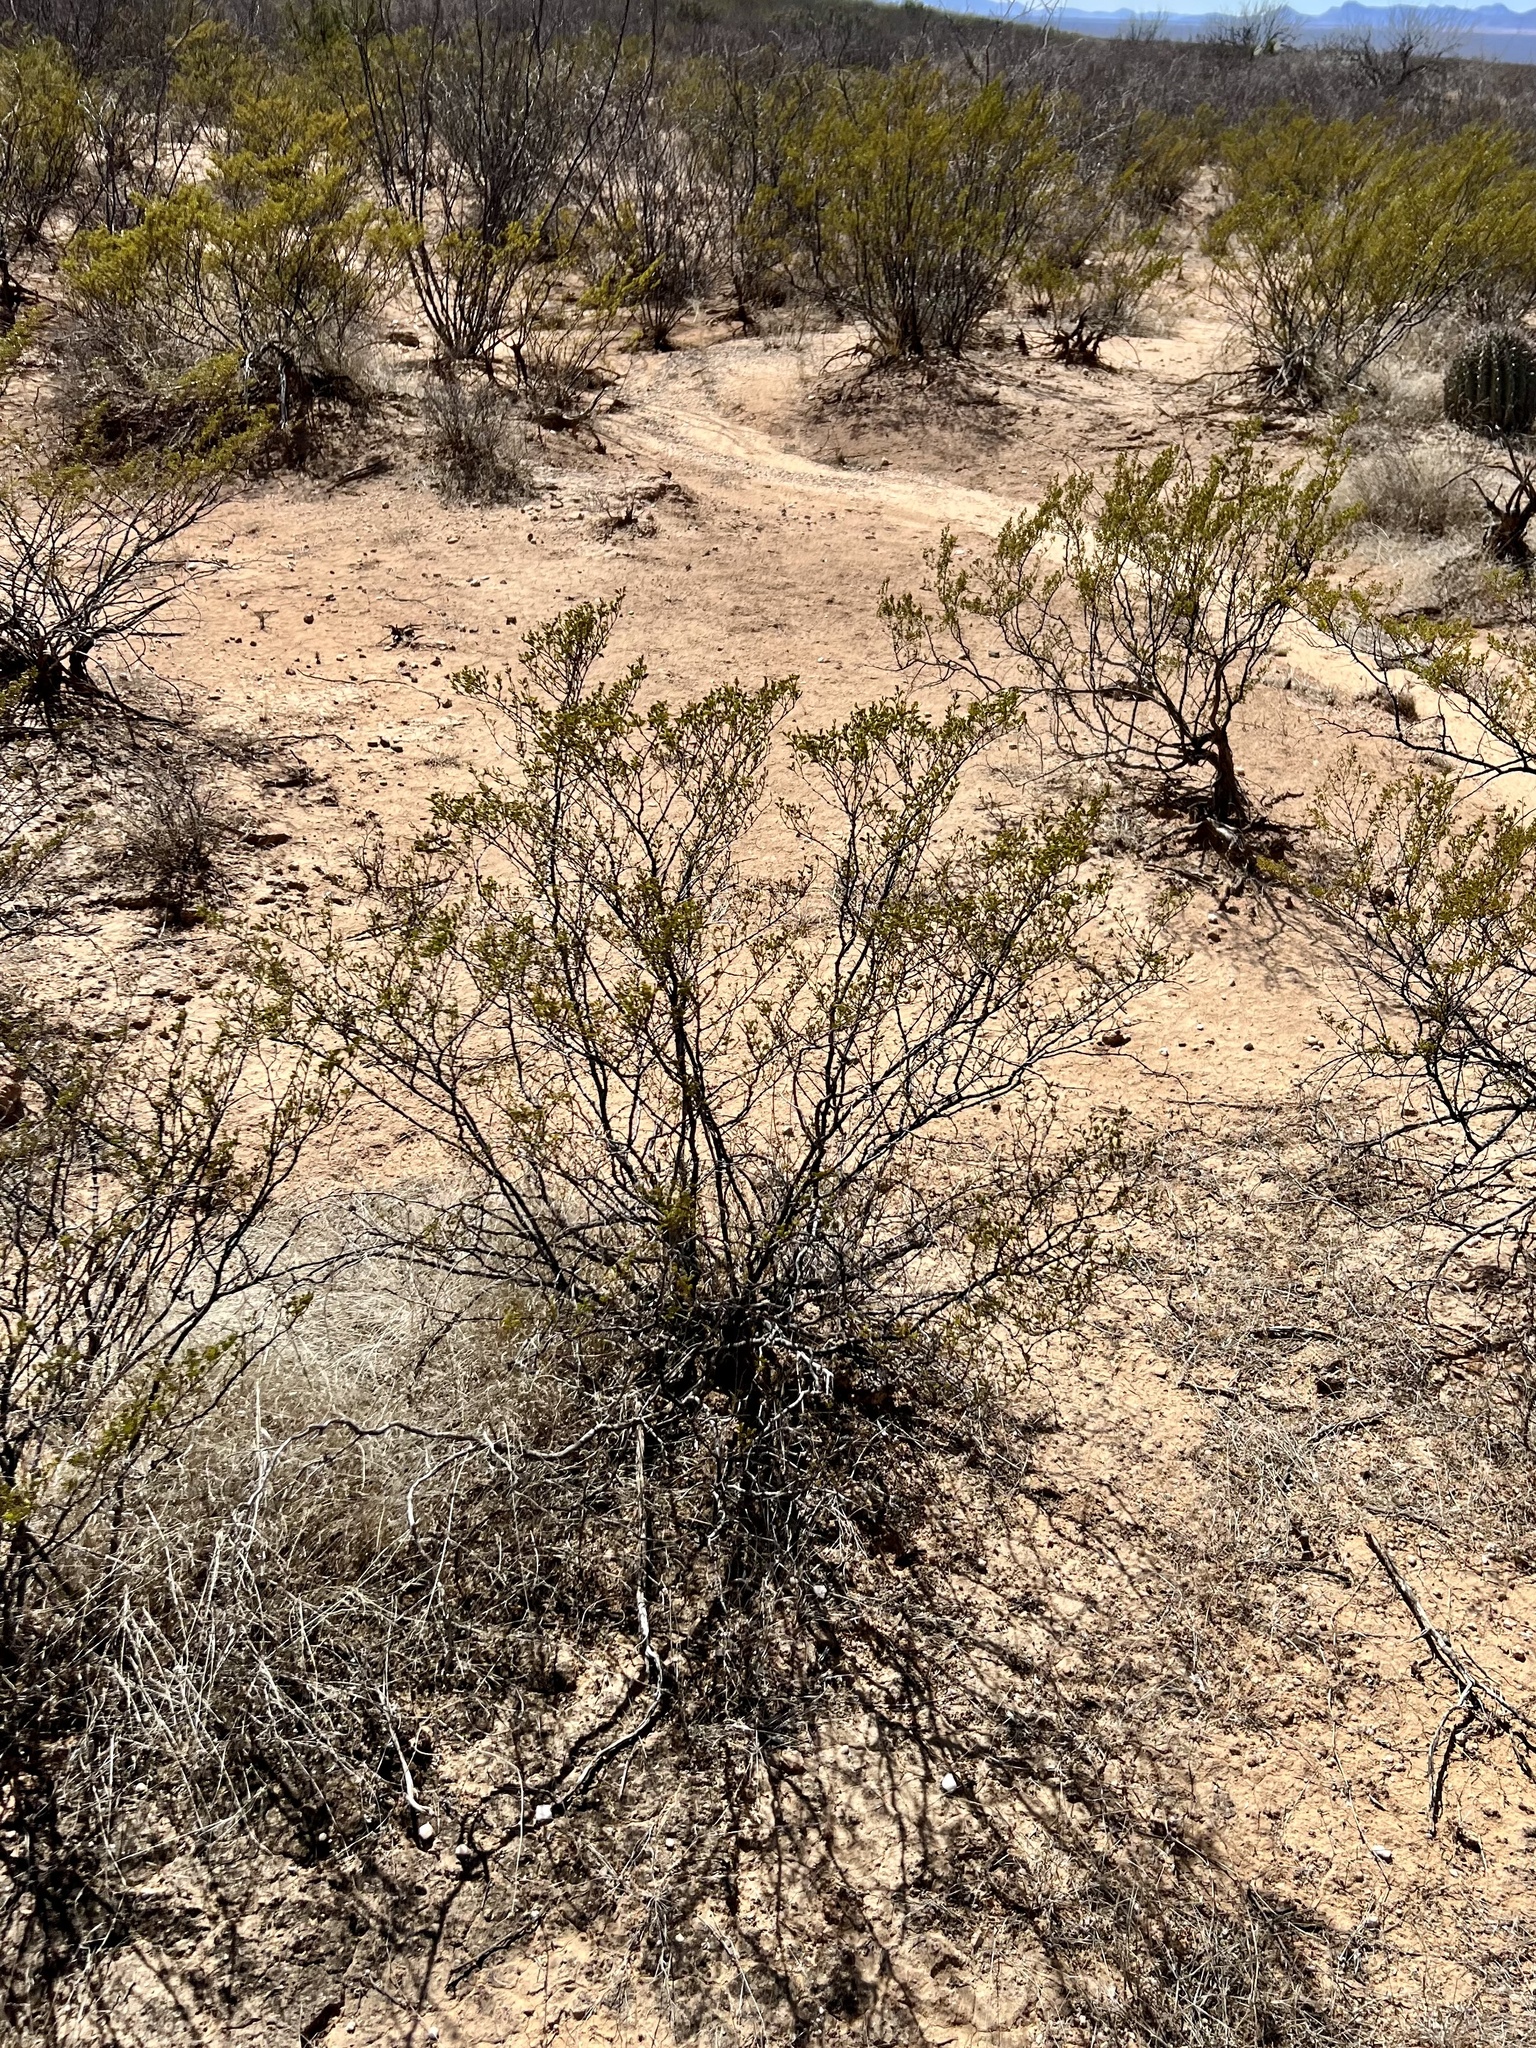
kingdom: Plantae
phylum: Tracheophyta
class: Magnoliopsida
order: Zygophyllales
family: Zygophyllaceae
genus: Larrea
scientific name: Larrea tridentata
